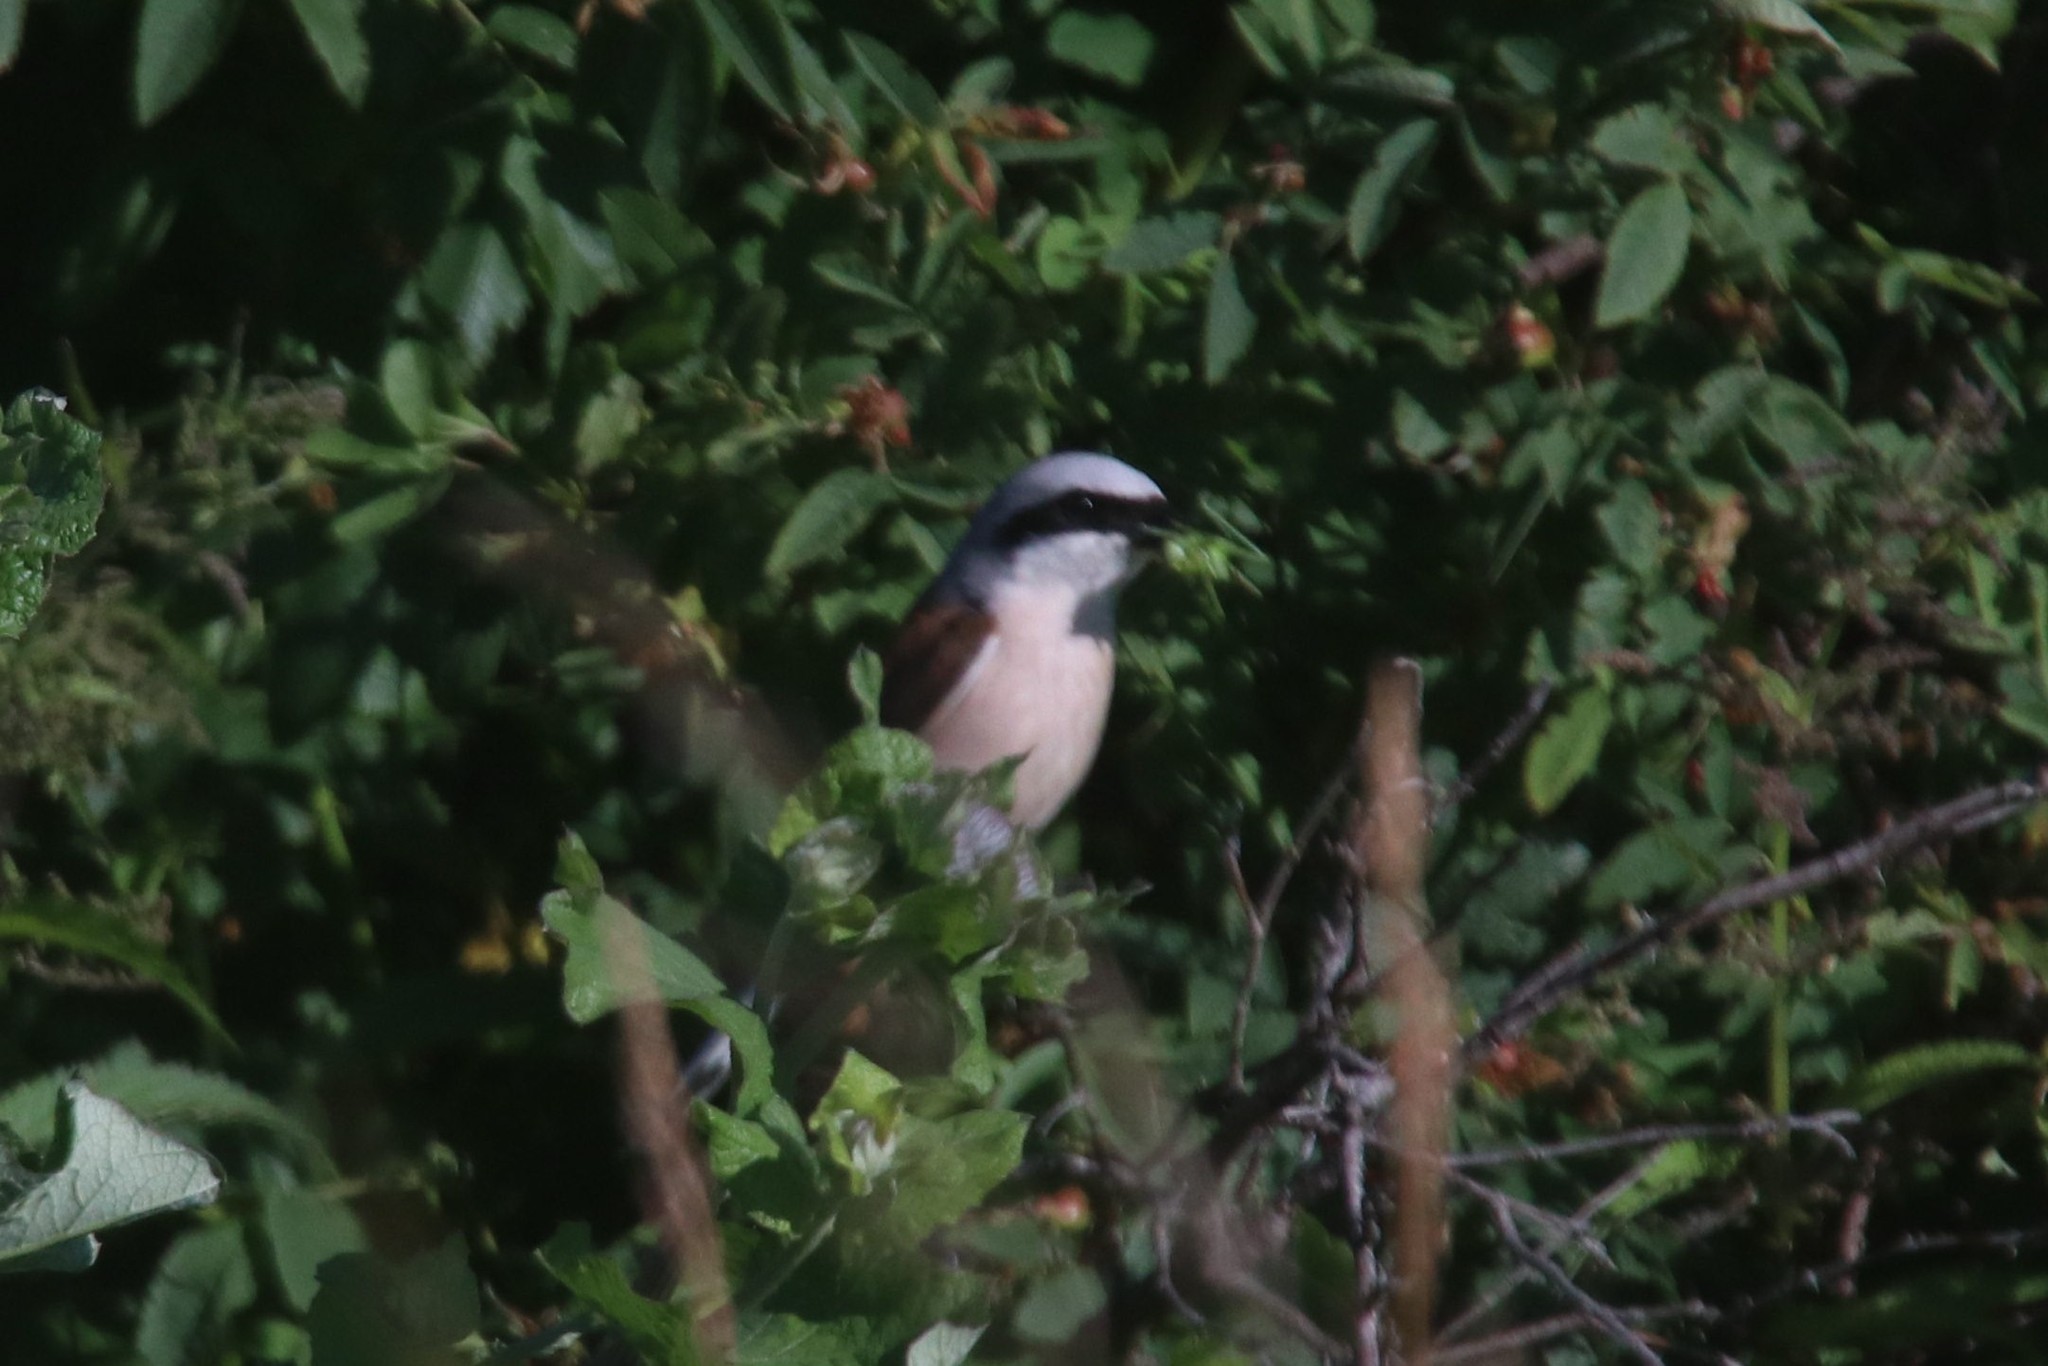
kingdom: Animalia
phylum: Chordata
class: Aves
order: Passeriformes
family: Laniidae
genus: Lanius
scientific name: Lanius collurio
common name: Red-backed shrike
